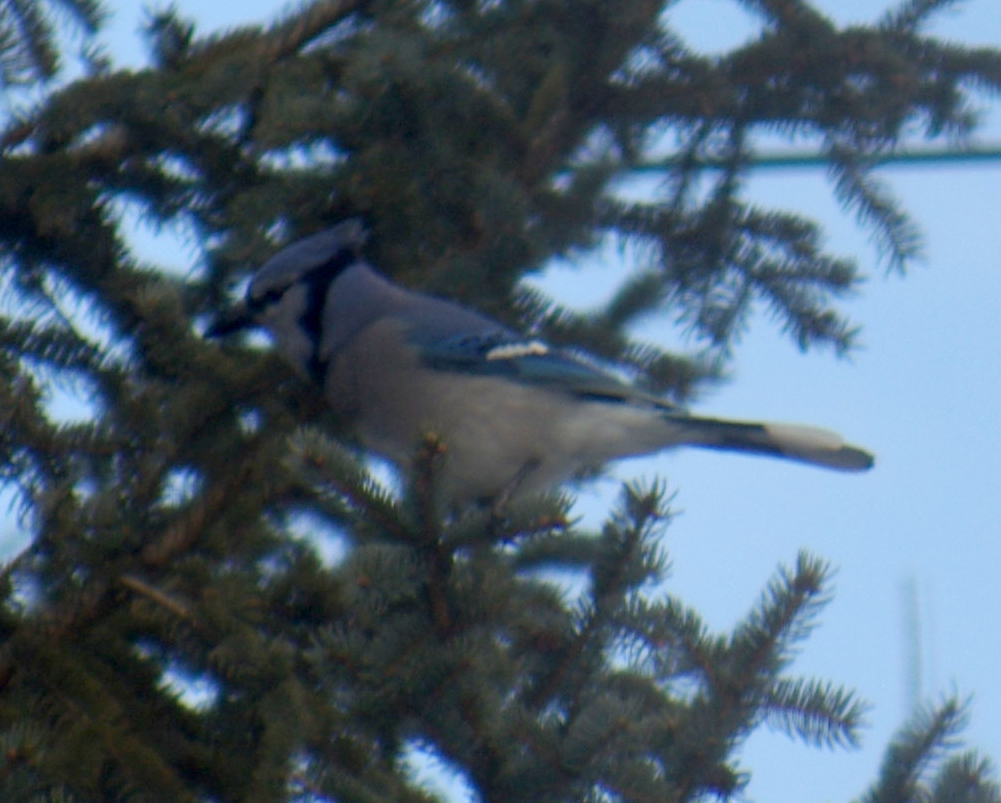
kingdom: Animalia
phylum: Chordata
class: Aves
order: Passeriformes
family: Corvidae
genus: Cyanocitta
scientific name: Cyanocitta cristata
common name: Blue jay
